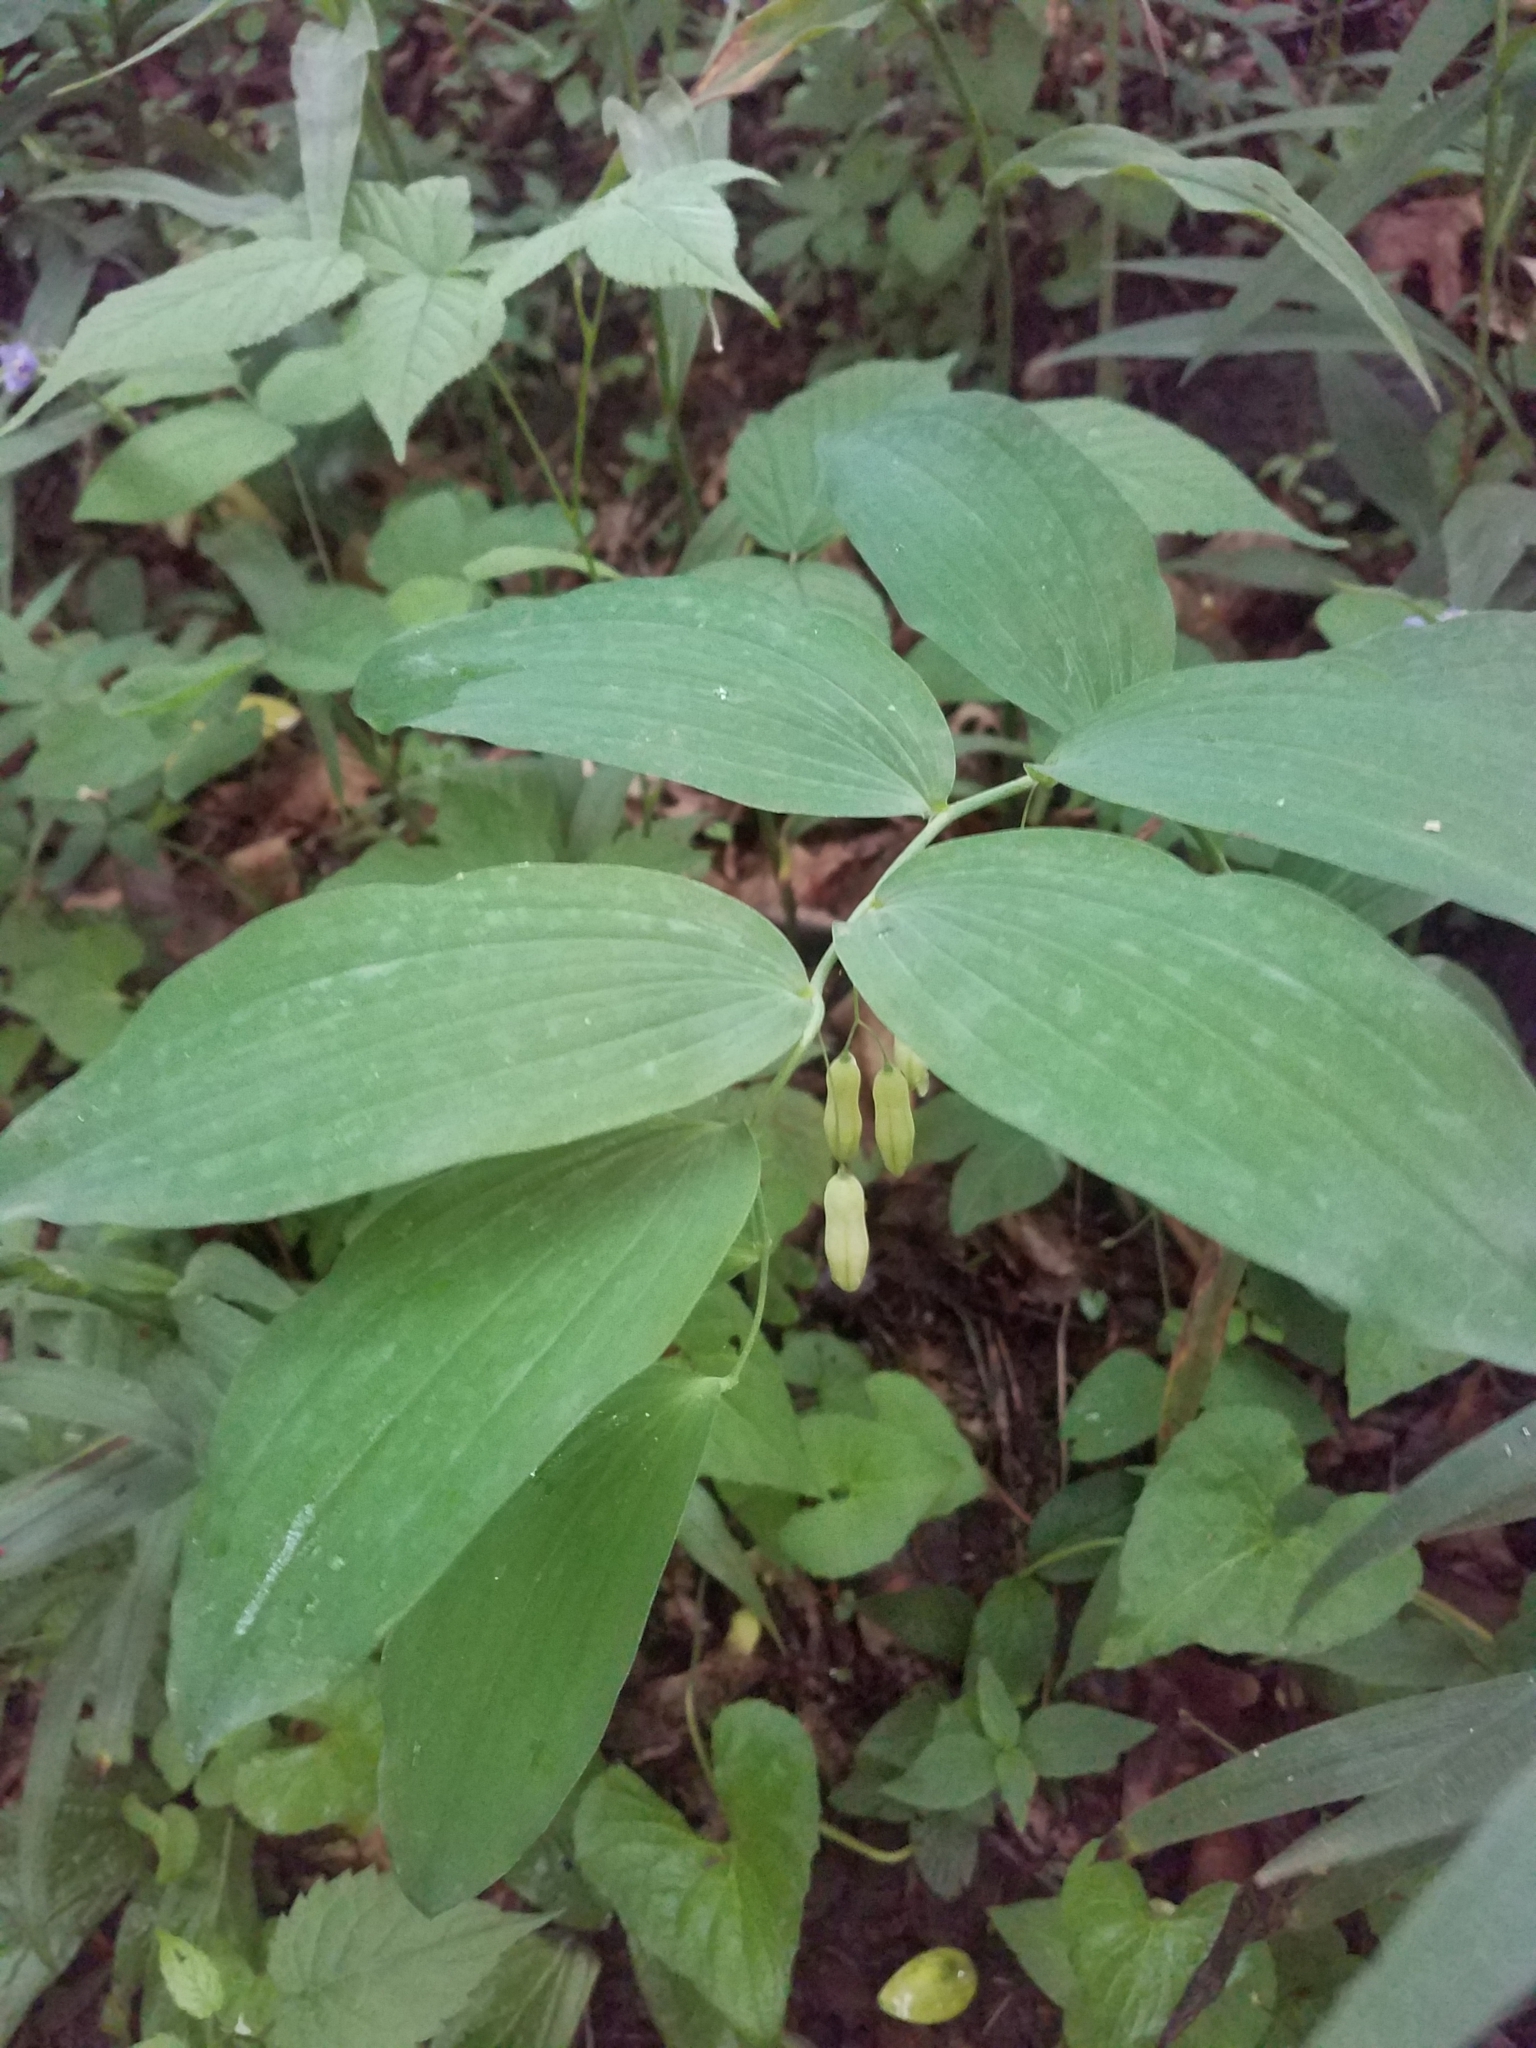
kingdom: Plantae
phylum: Tracheophyta
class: Liliopsida
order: Asparagales
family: Asparagaceae
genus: Polygonatum
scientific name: Polygonatum
